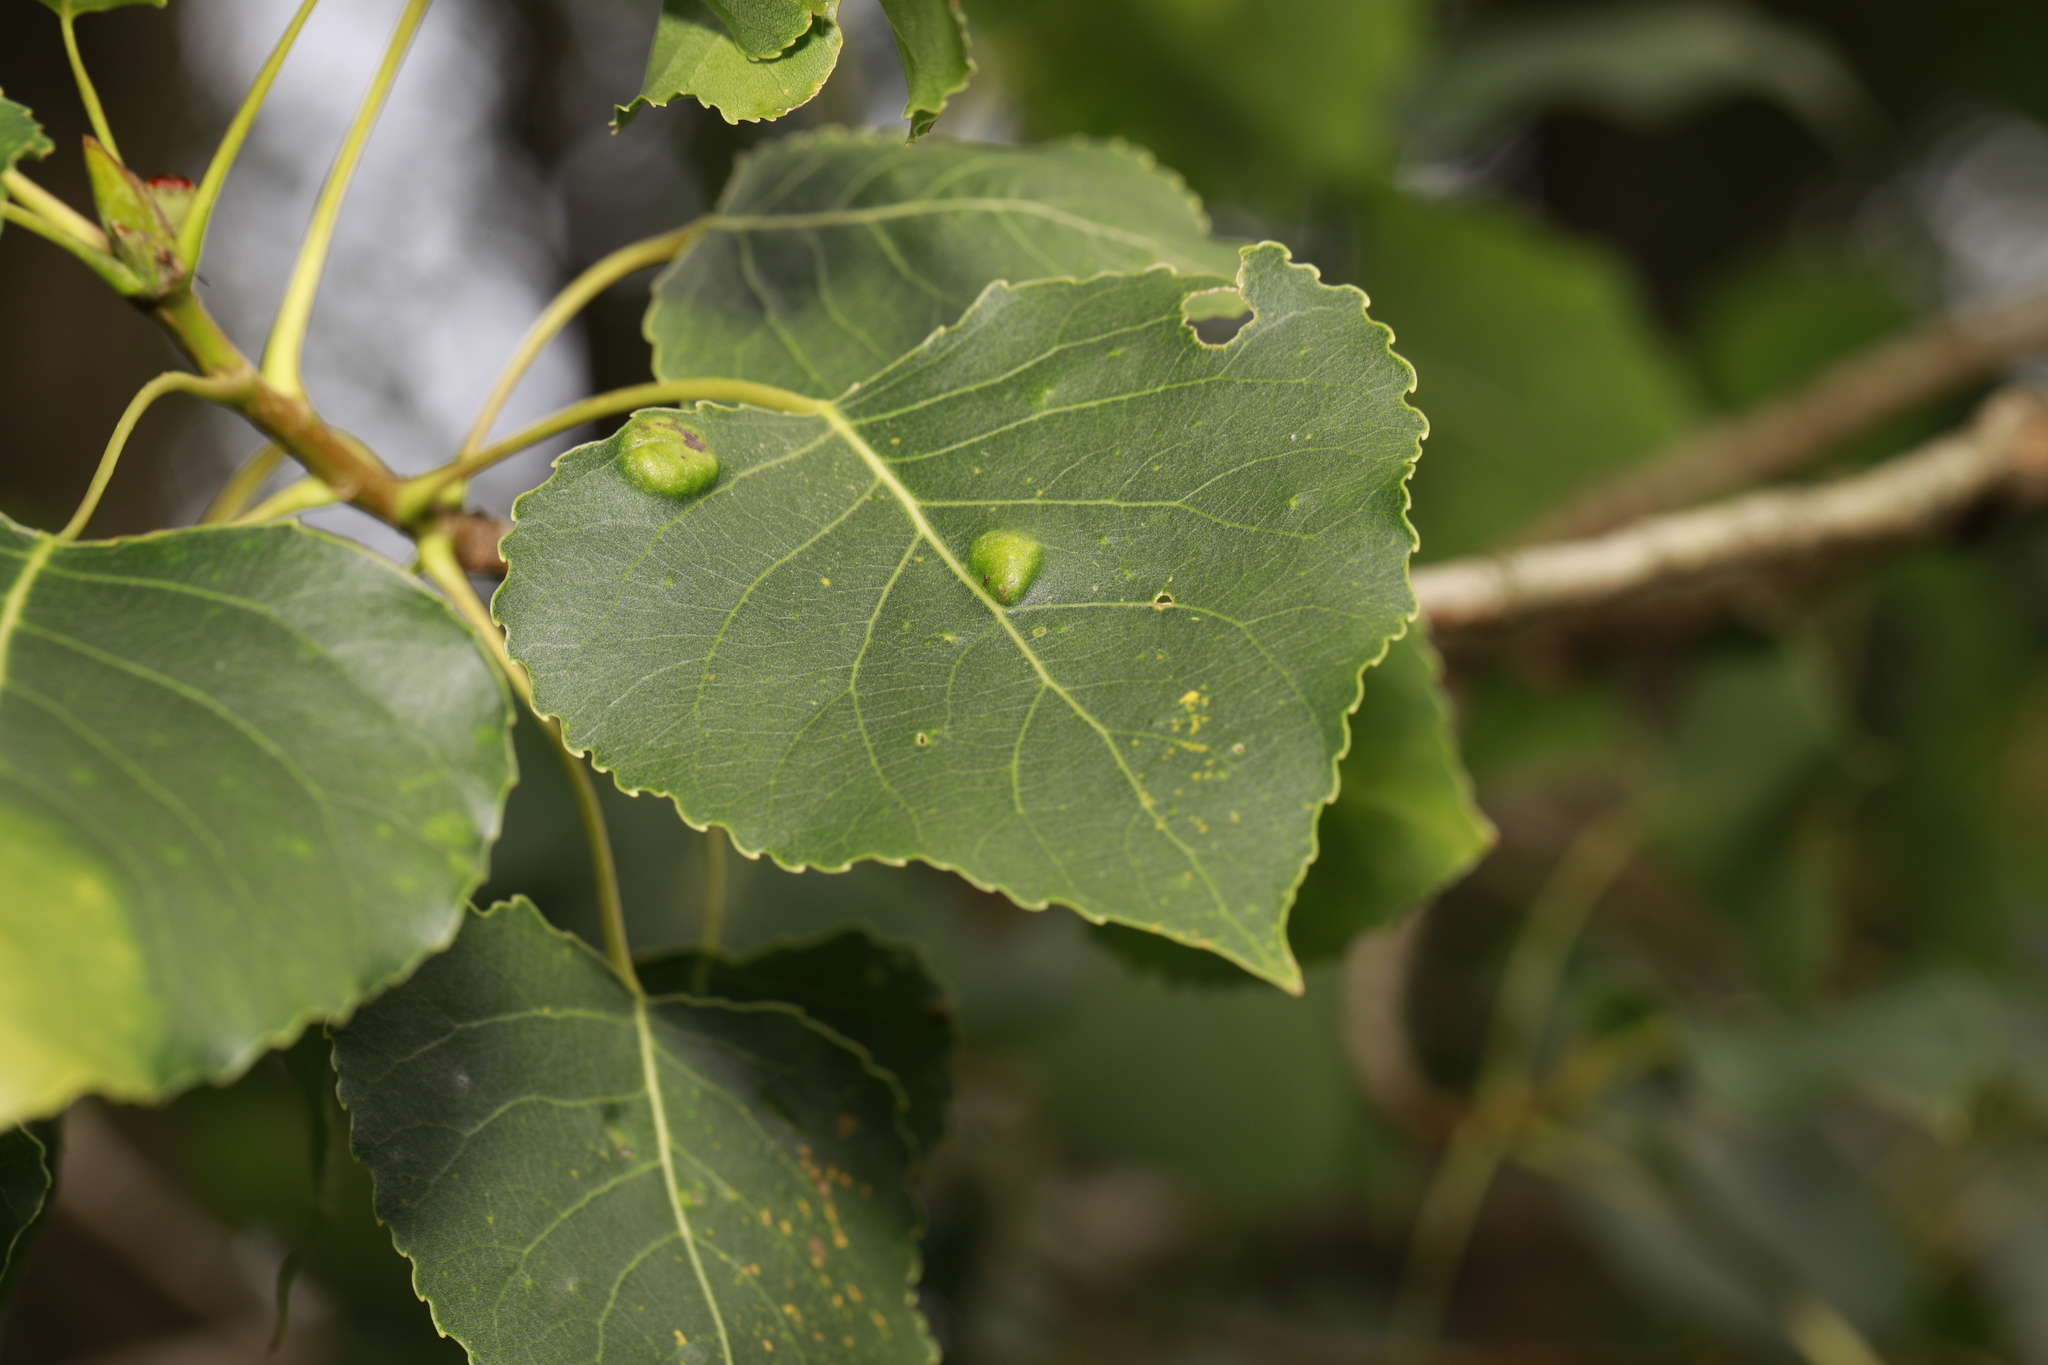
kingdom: Plantae
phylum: Tracheophyta
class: Magnoliopsida
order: Malpighiales
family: Salicaceae
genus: Populus
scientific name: Populus nigra
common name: Black poplar
